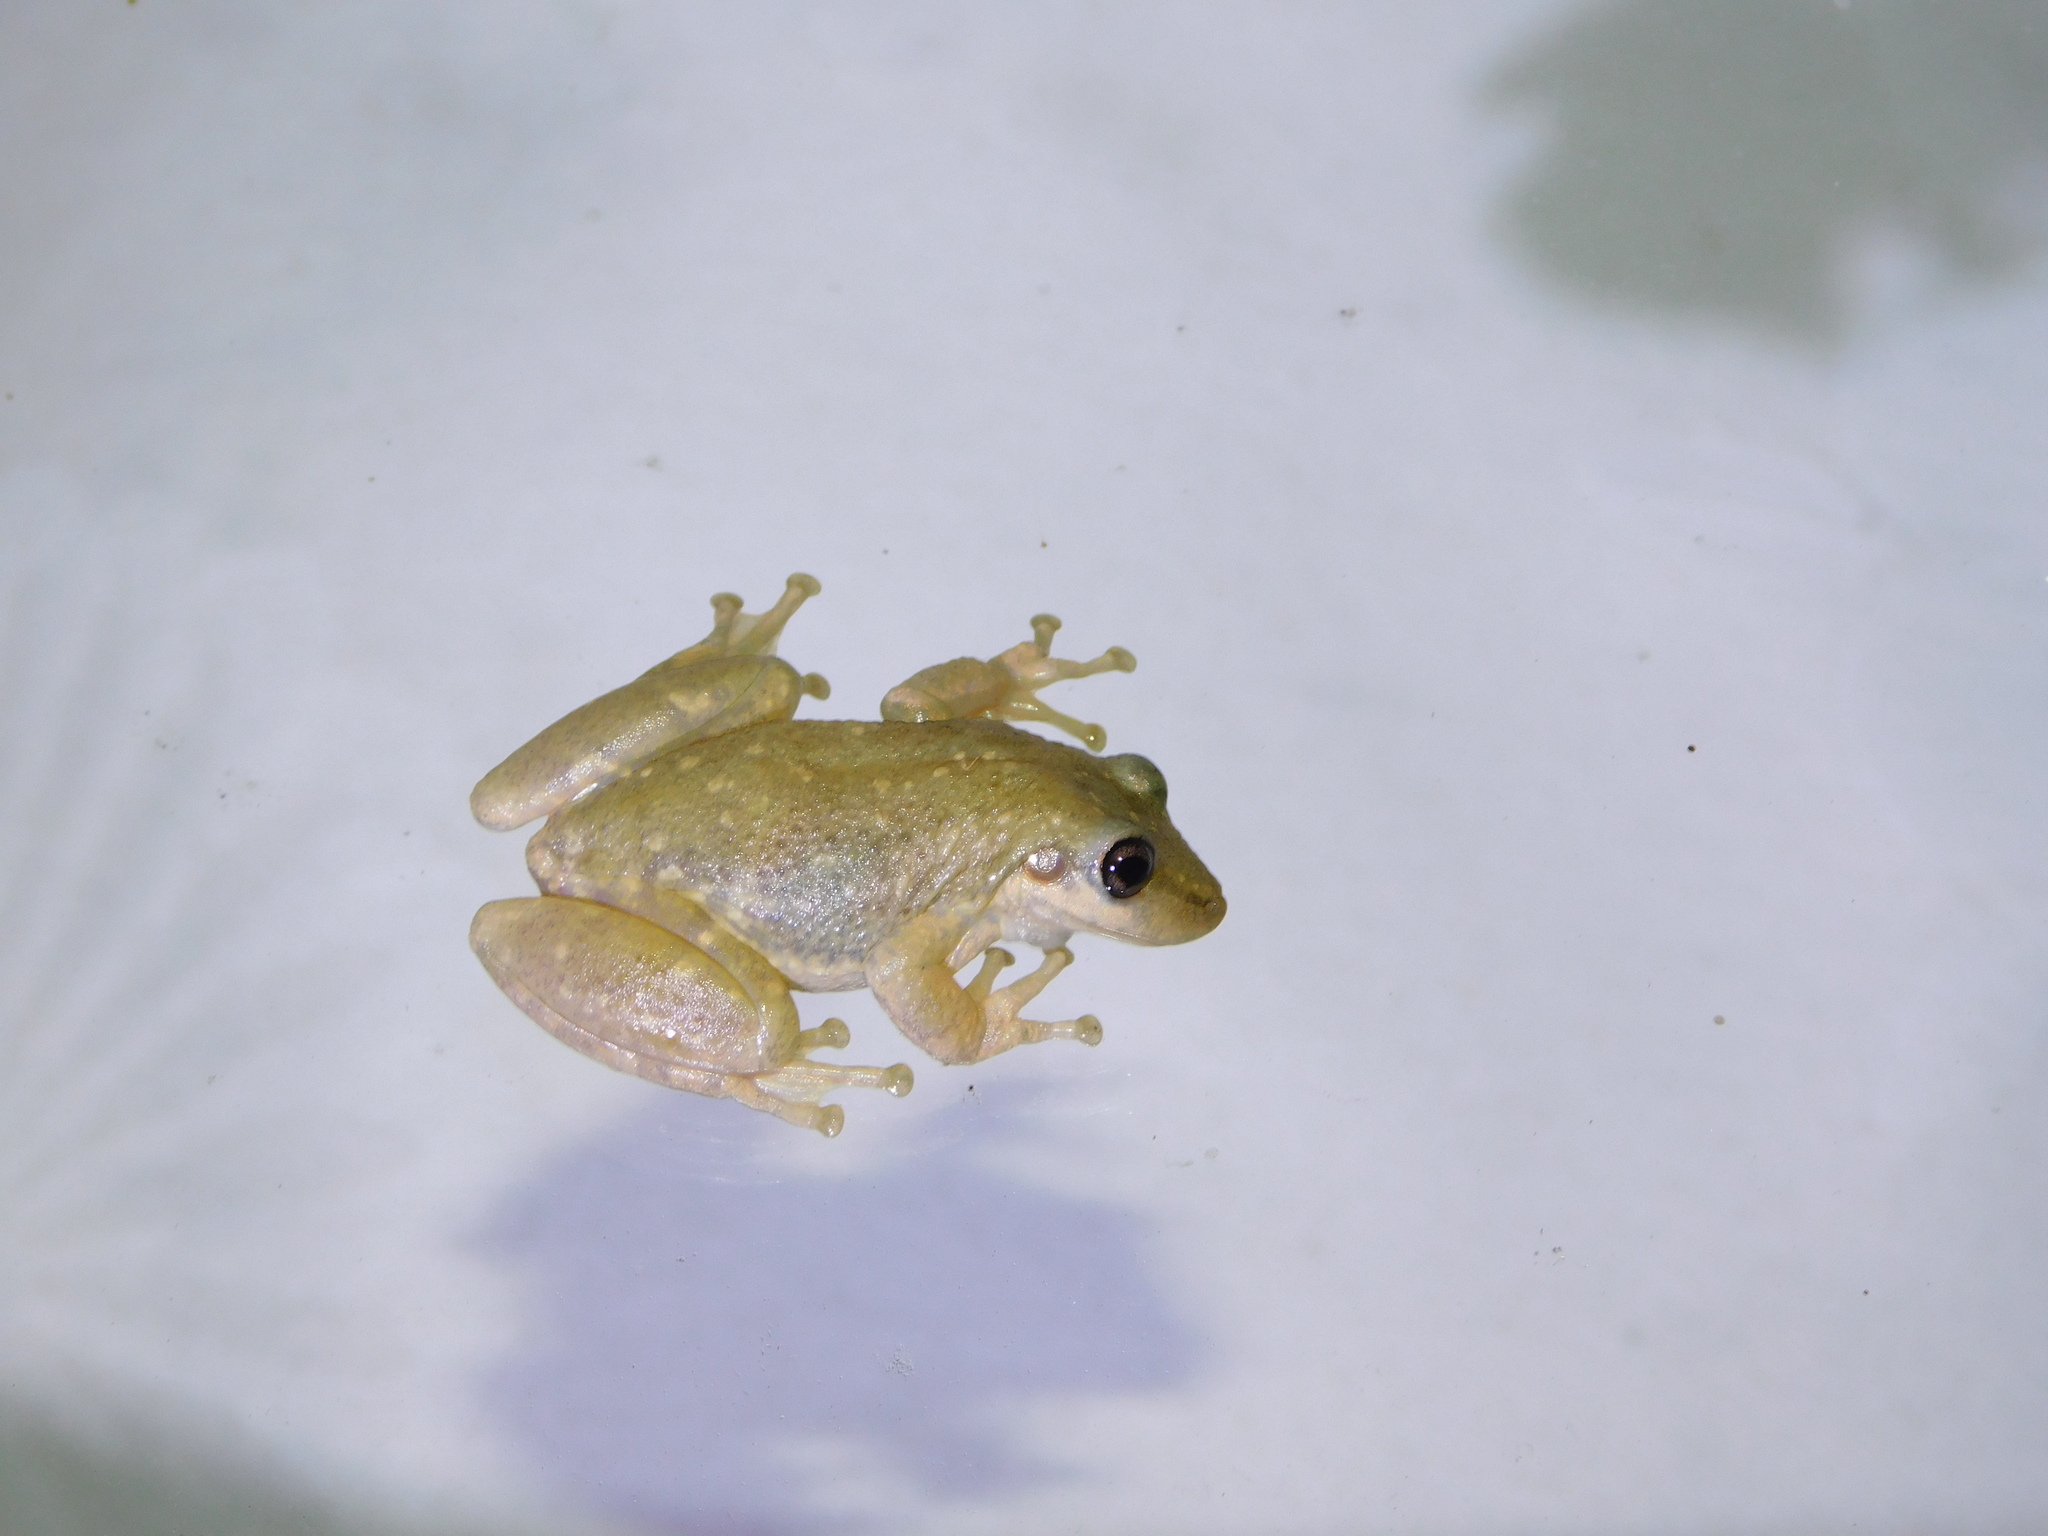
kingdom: Animalia
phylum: Chordata
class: Amphibia
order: Anura
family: Hylidae
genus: Scinax
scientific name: Scinax nasicus
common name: Lesser snouted treefrog
